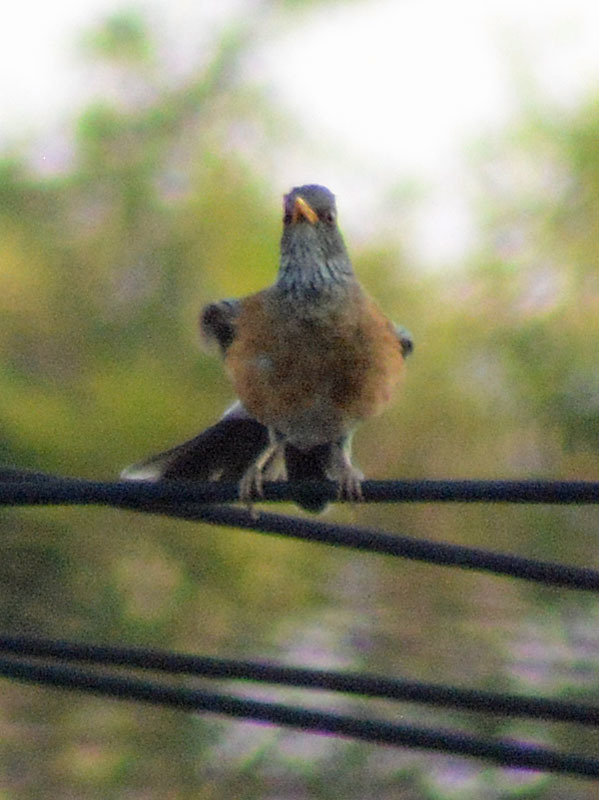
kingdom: Animalia
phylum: Chordata
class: Aves
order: Passeriformes
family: Turdidae
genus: Turdus
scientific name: Turdus rufopalliatus
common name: Rufous-backed robin
